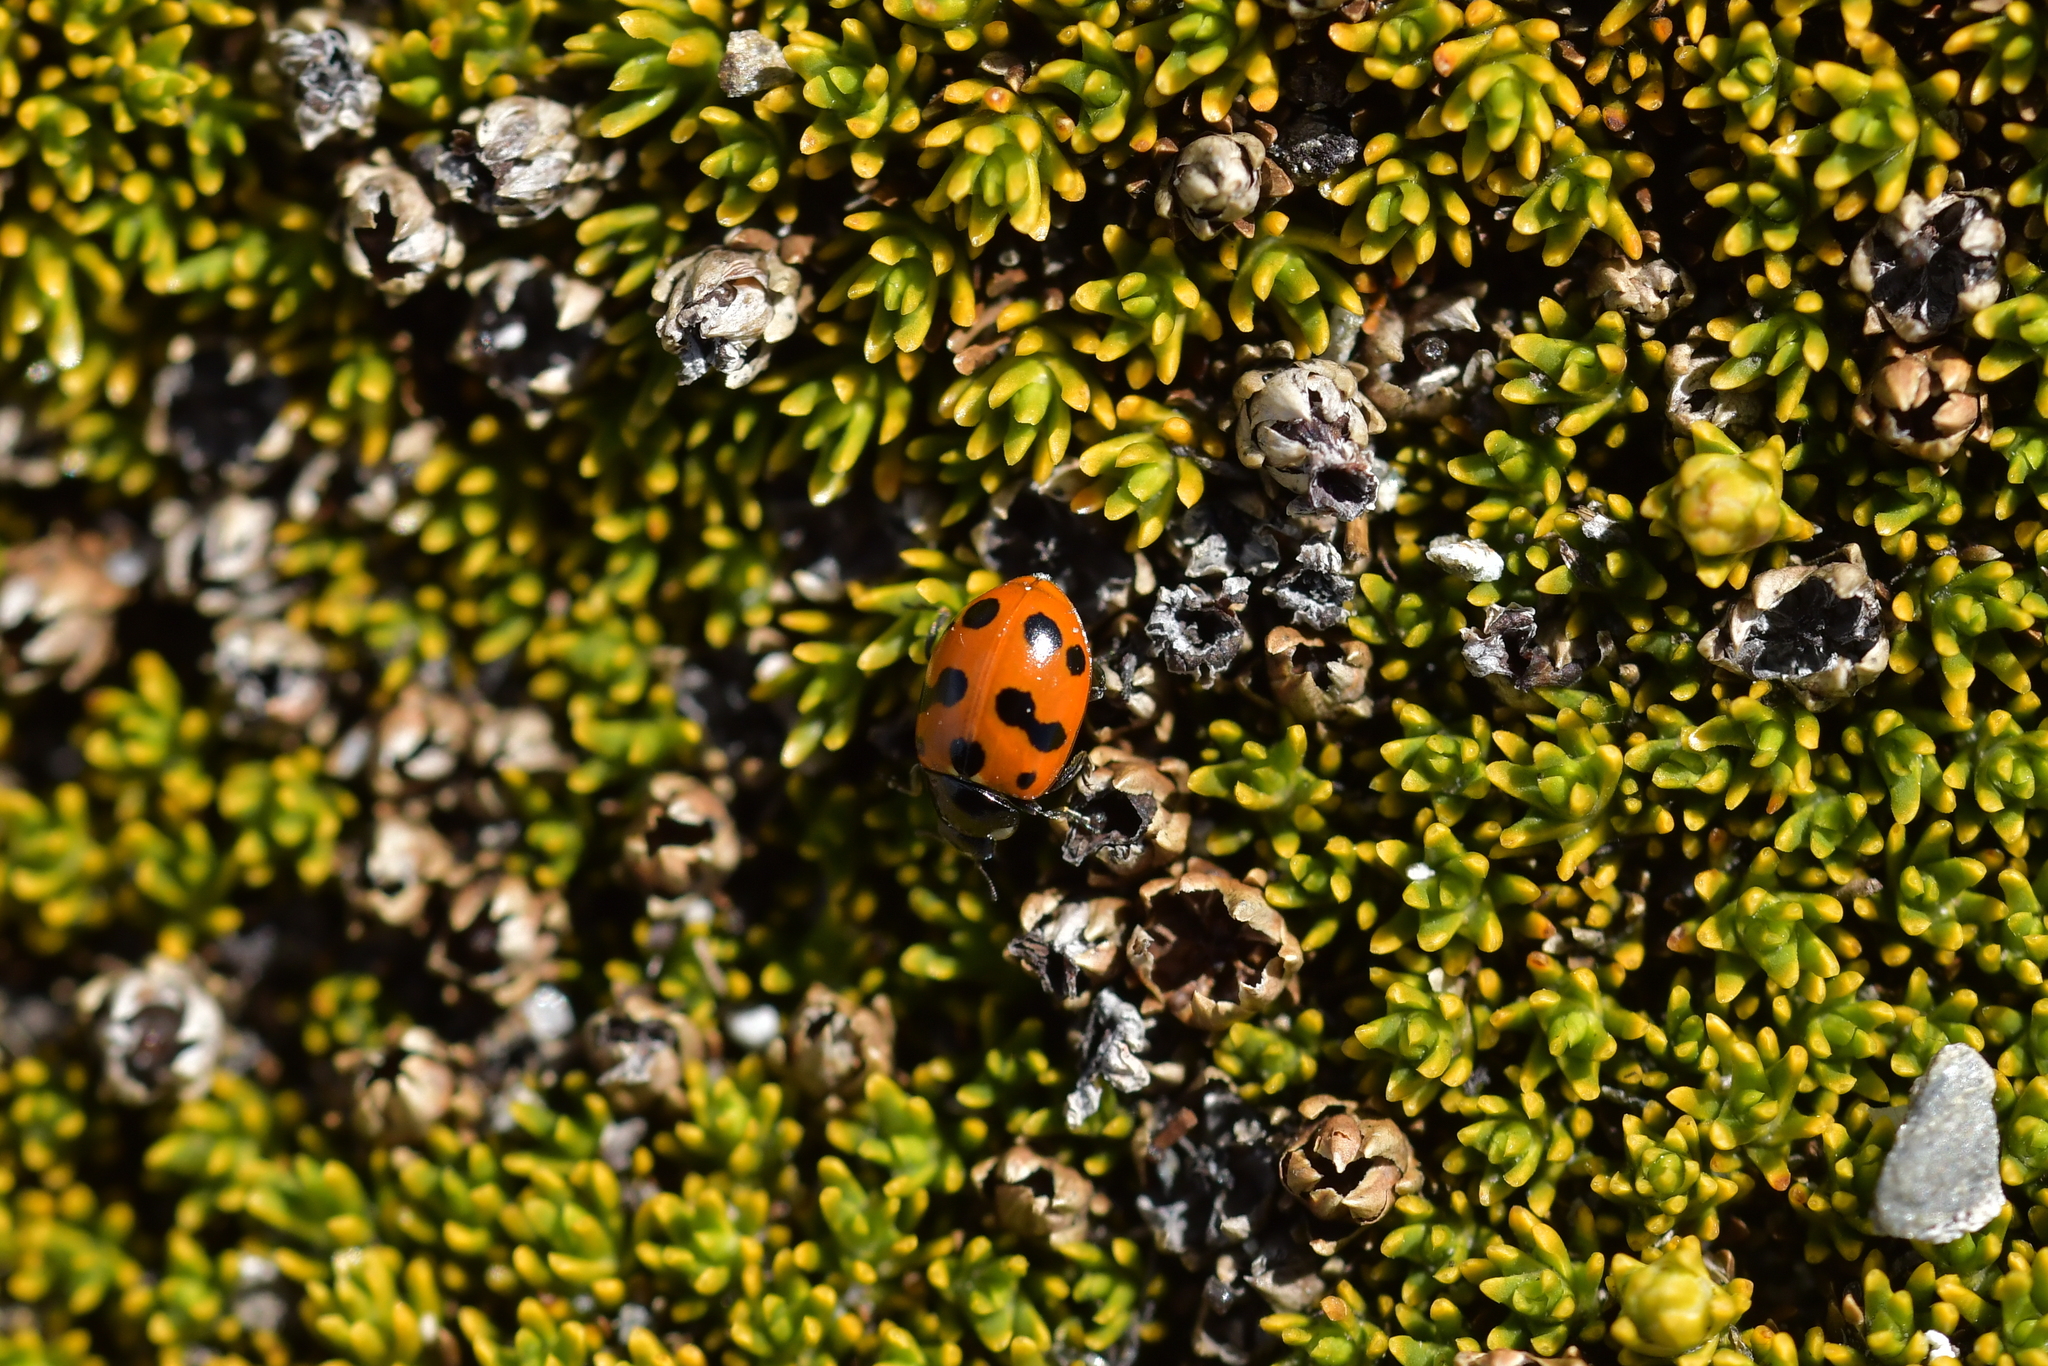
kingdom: Animalia
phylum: Arthropoda
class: Insecta
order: Coleoptera
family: Coccinellidae
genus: Coccinella
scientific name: Coccinella undecimpunctata
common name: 11-spot ladybird
